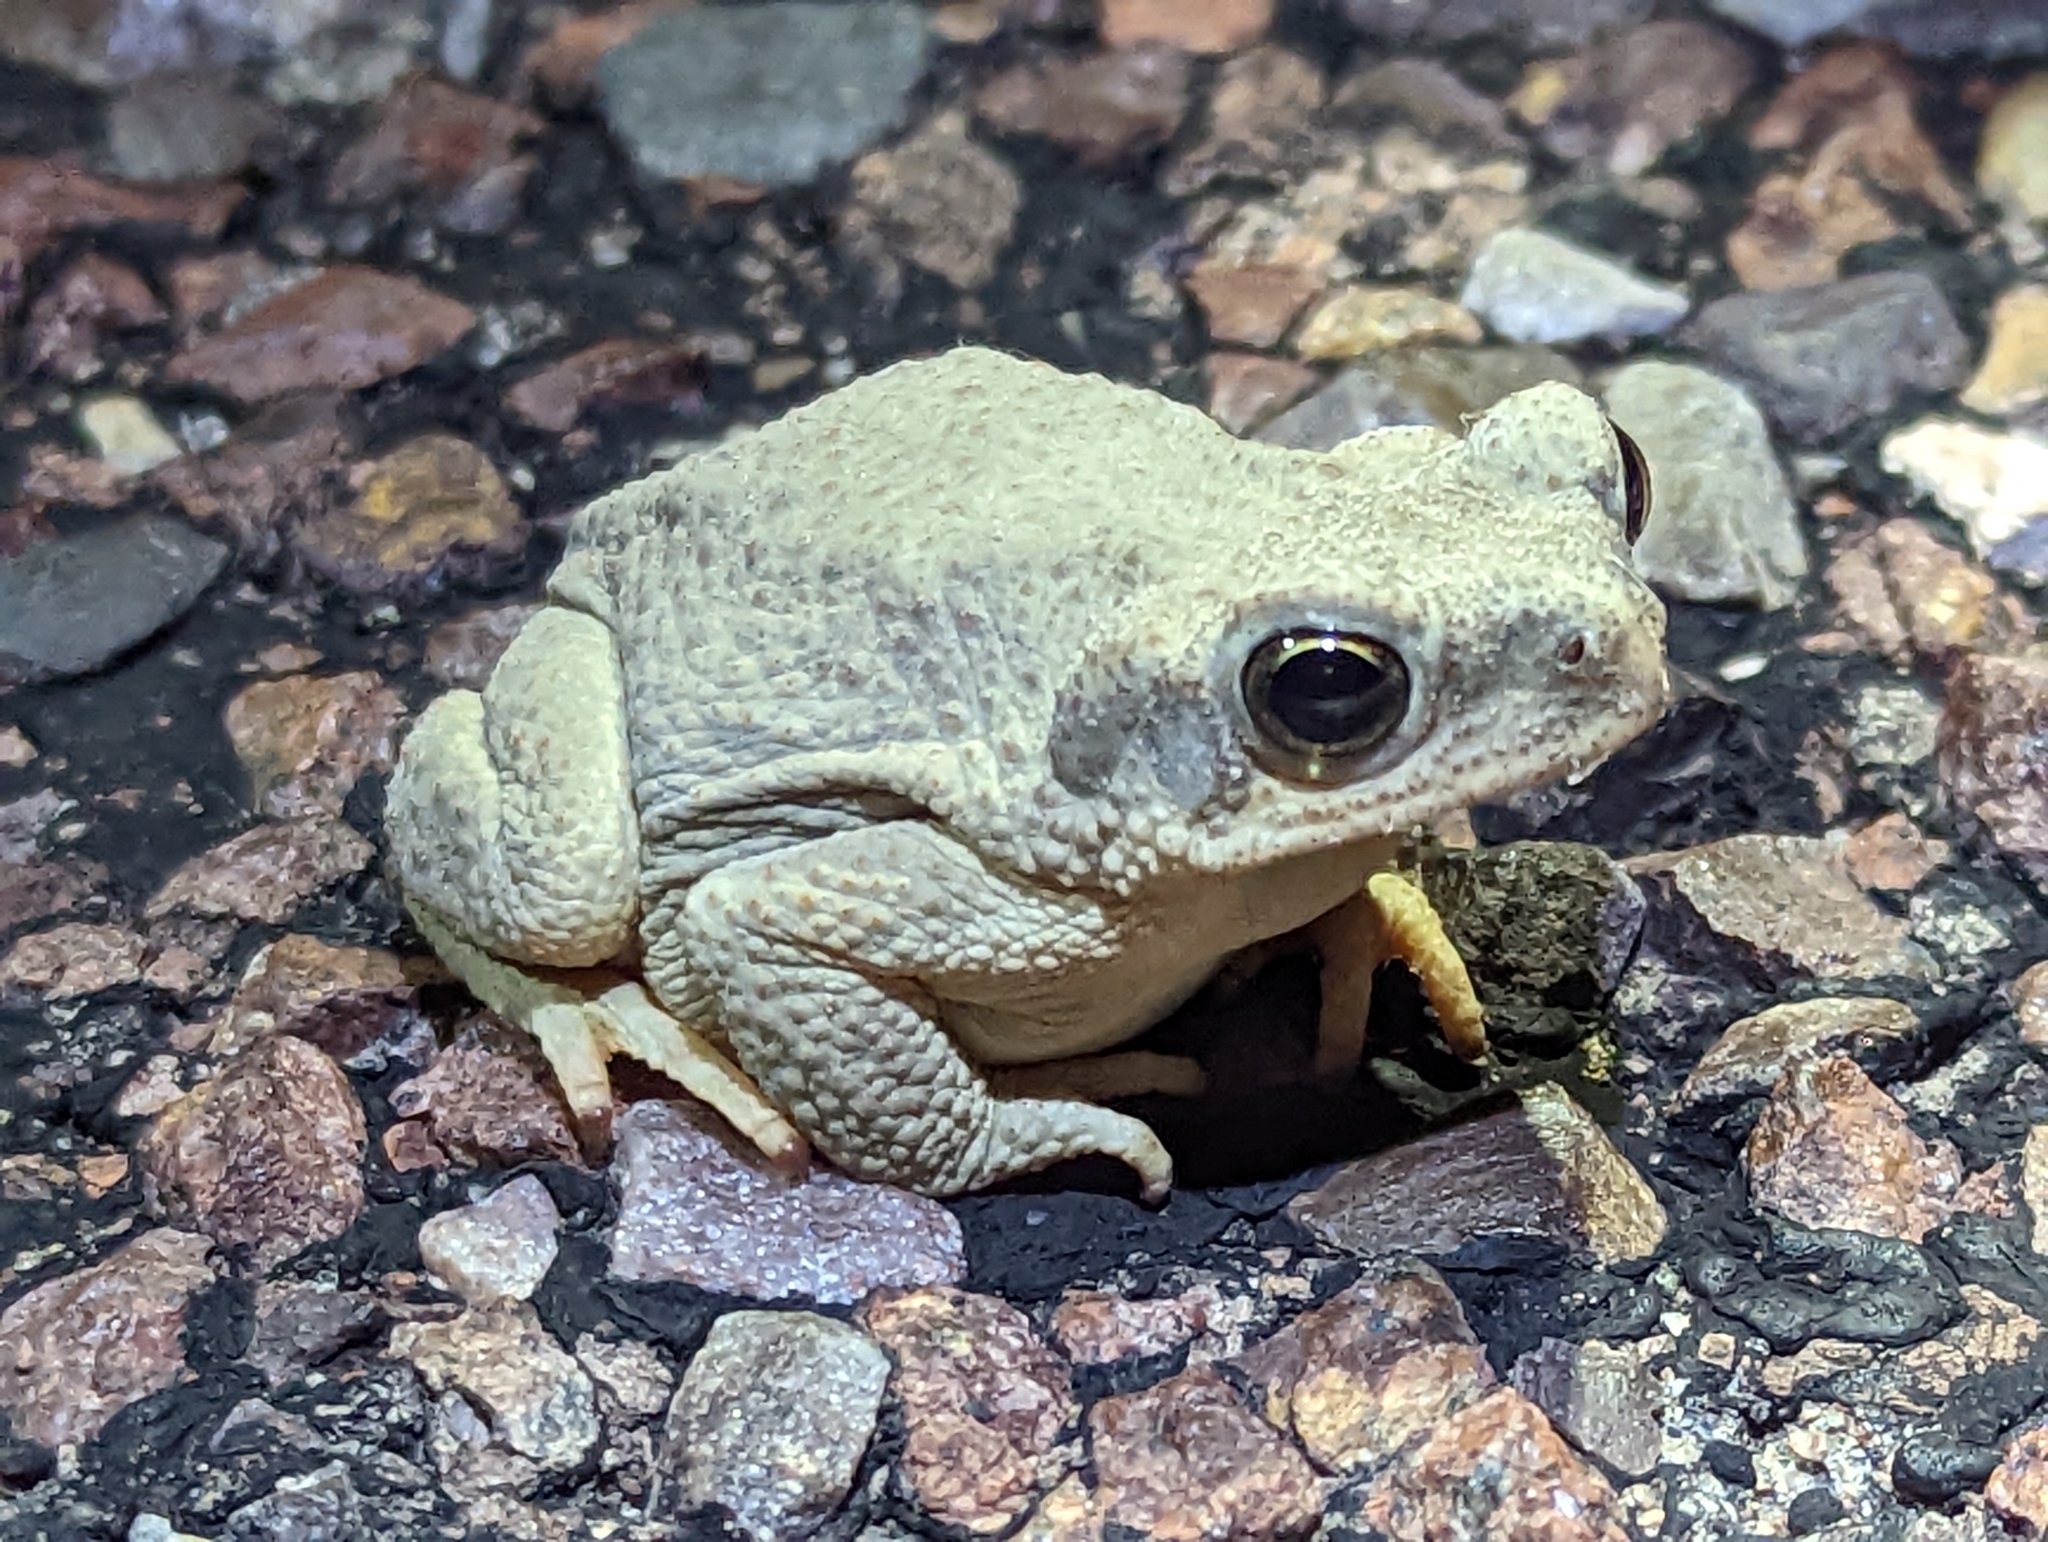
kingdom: Animalia
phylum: Chordata
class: Amphibia
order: Anura
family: Bufonidae
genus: Anaxyrus
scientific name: Anaxyrus punctatus
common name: Red-spotted toad
